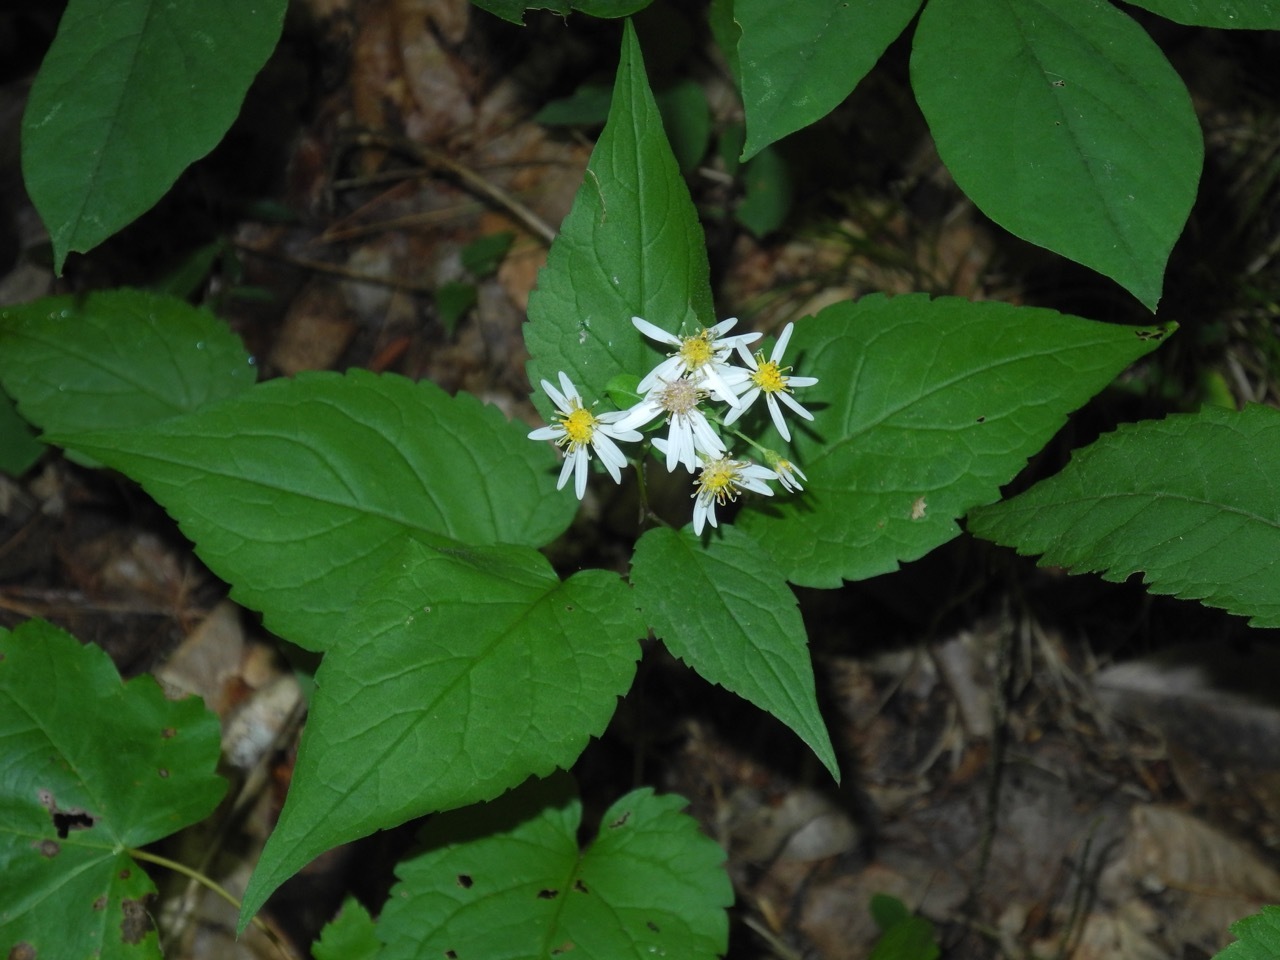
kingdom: Plantae
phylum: Tracheophyta
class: Magnoliopsida
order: Asterales
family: Asteraceae
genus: Eurybia
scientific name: Eurybia divaricata
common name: White wood aster
